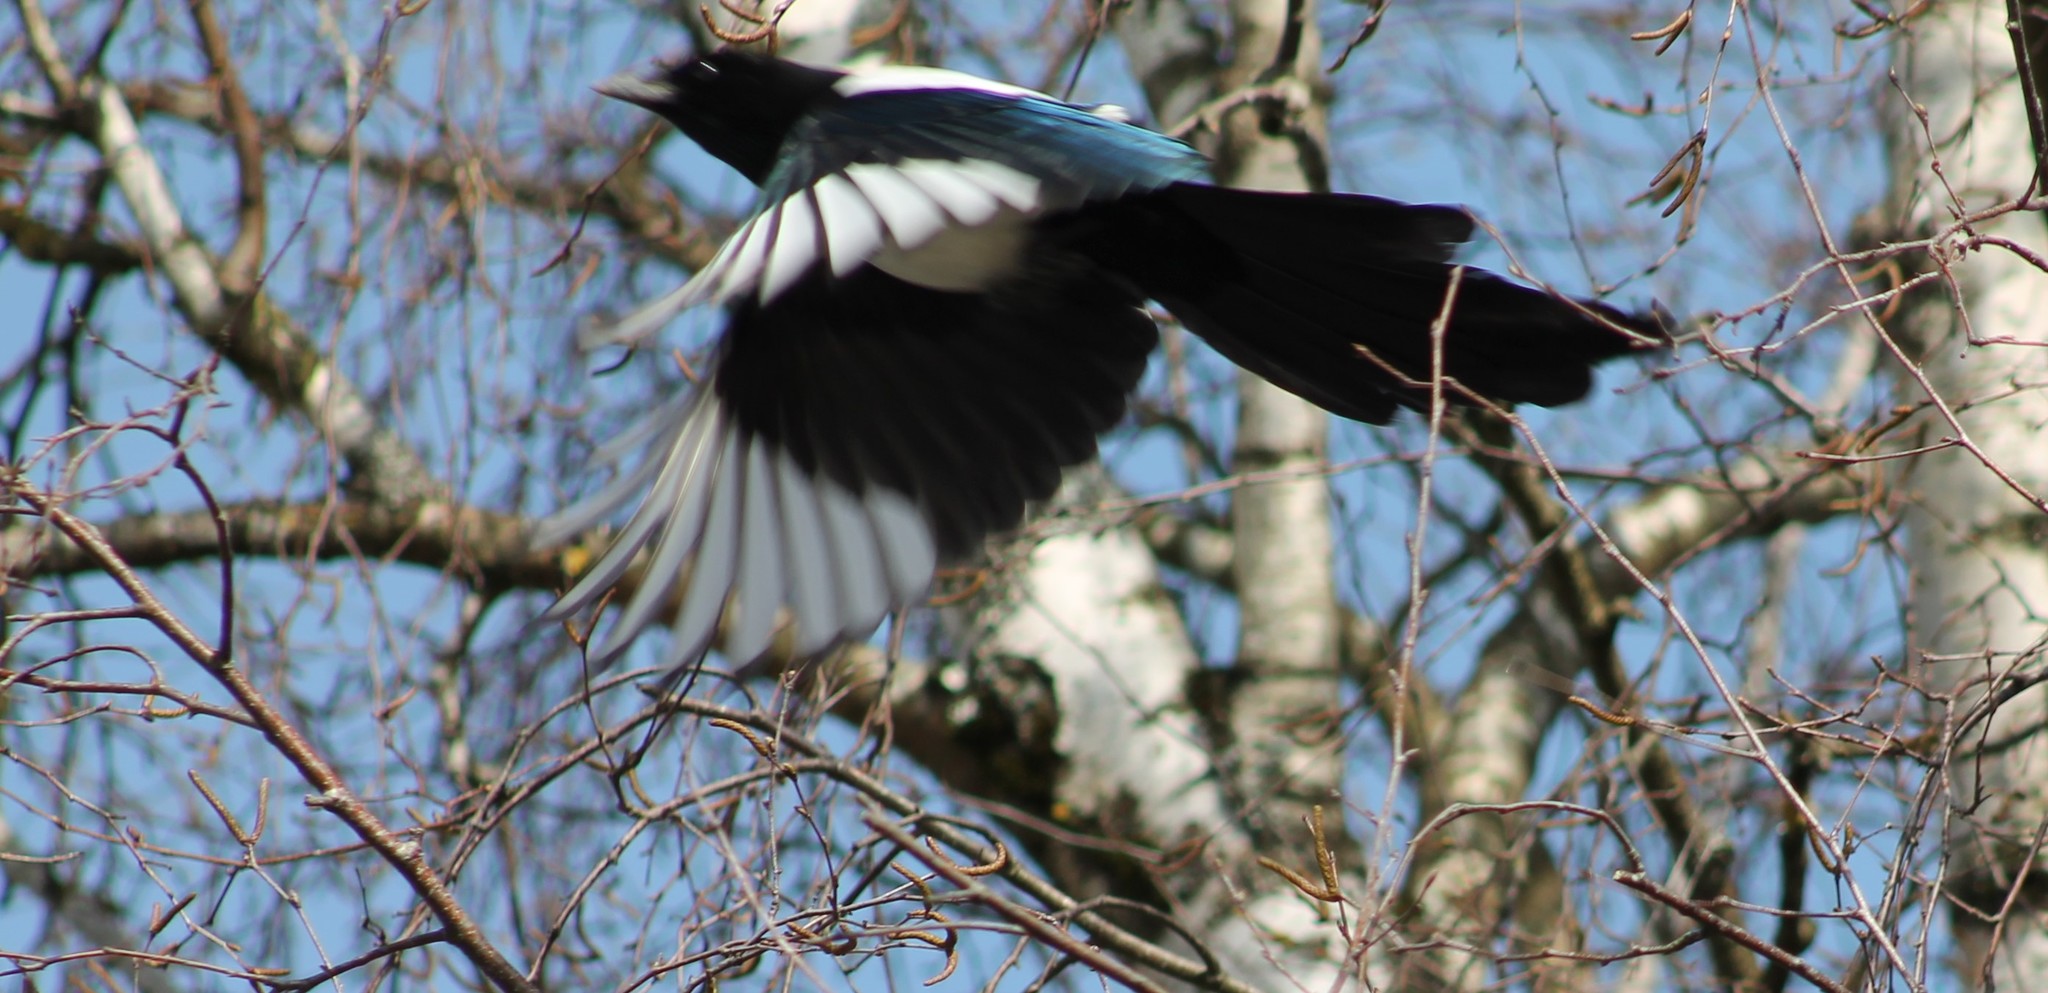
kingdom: Animalia
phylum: Chordata
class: Aves
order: Passeriformes
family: Corvidae
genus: Pica
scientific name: Pica pica
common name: Eurasian magpie
